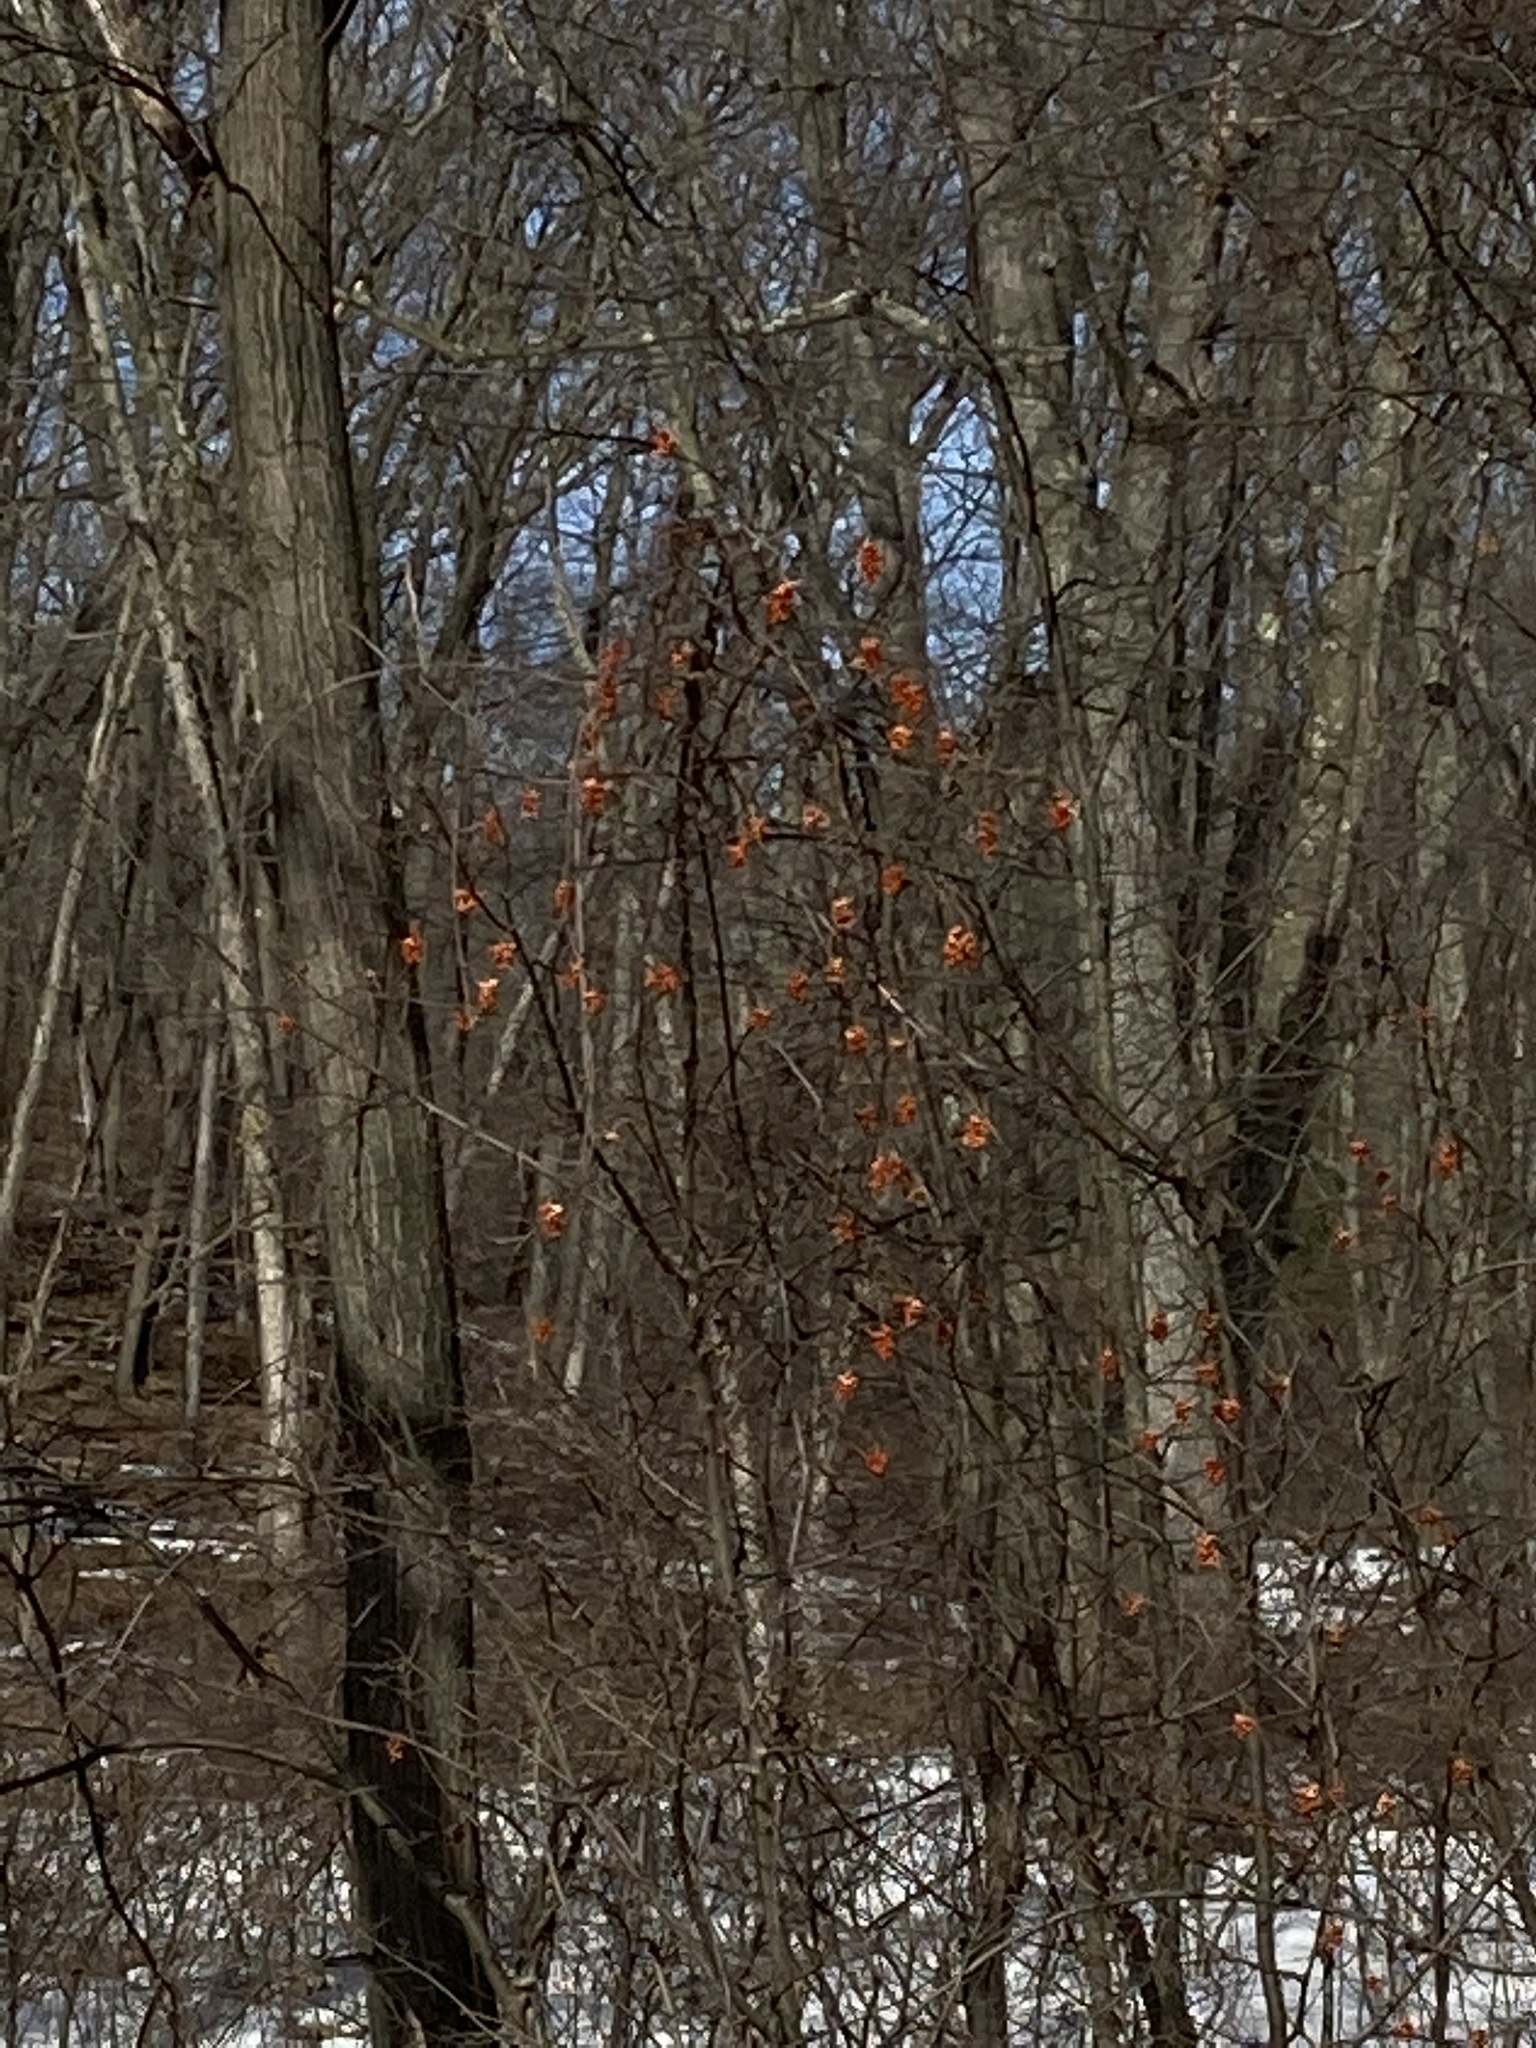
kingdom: Plantae
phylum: Tracheophyta
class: Magnoliopsida
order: Celastrales
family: Celastraceae
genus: Celastrus
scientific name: Celastrus scandens
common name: American bittersweet
